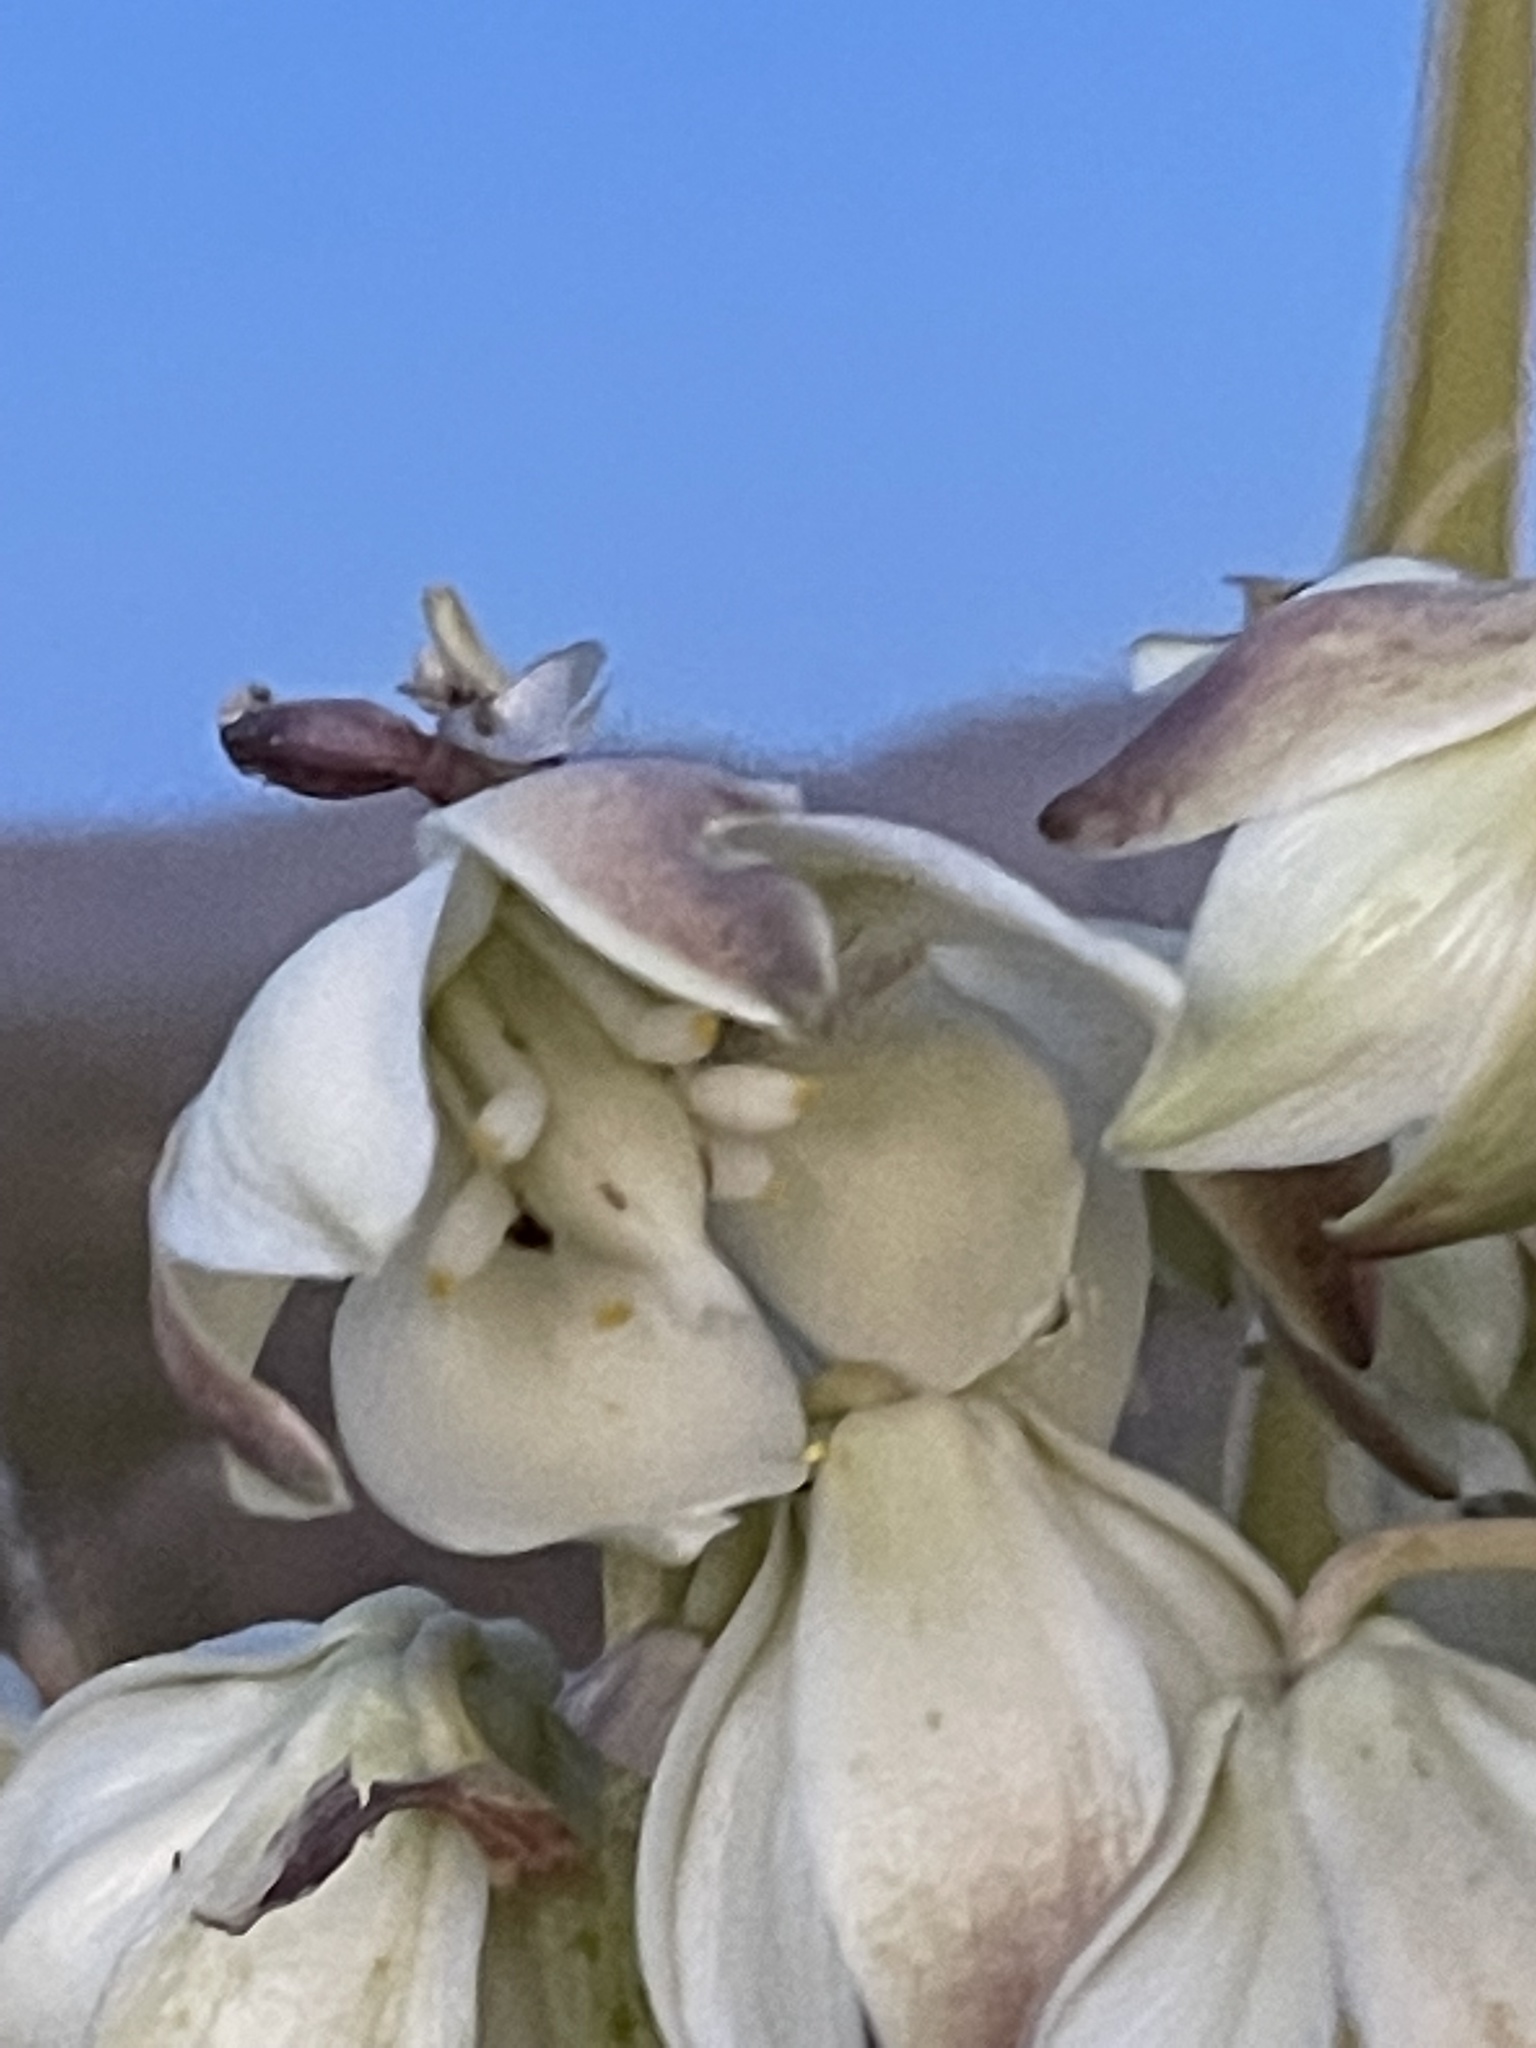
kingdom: Plantae
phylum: Tracheophyta
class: Liliopsida
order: Asparagales
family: Asparagaceae
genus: Yucca
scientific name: Yucca schidigera
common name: Mojave yucca
